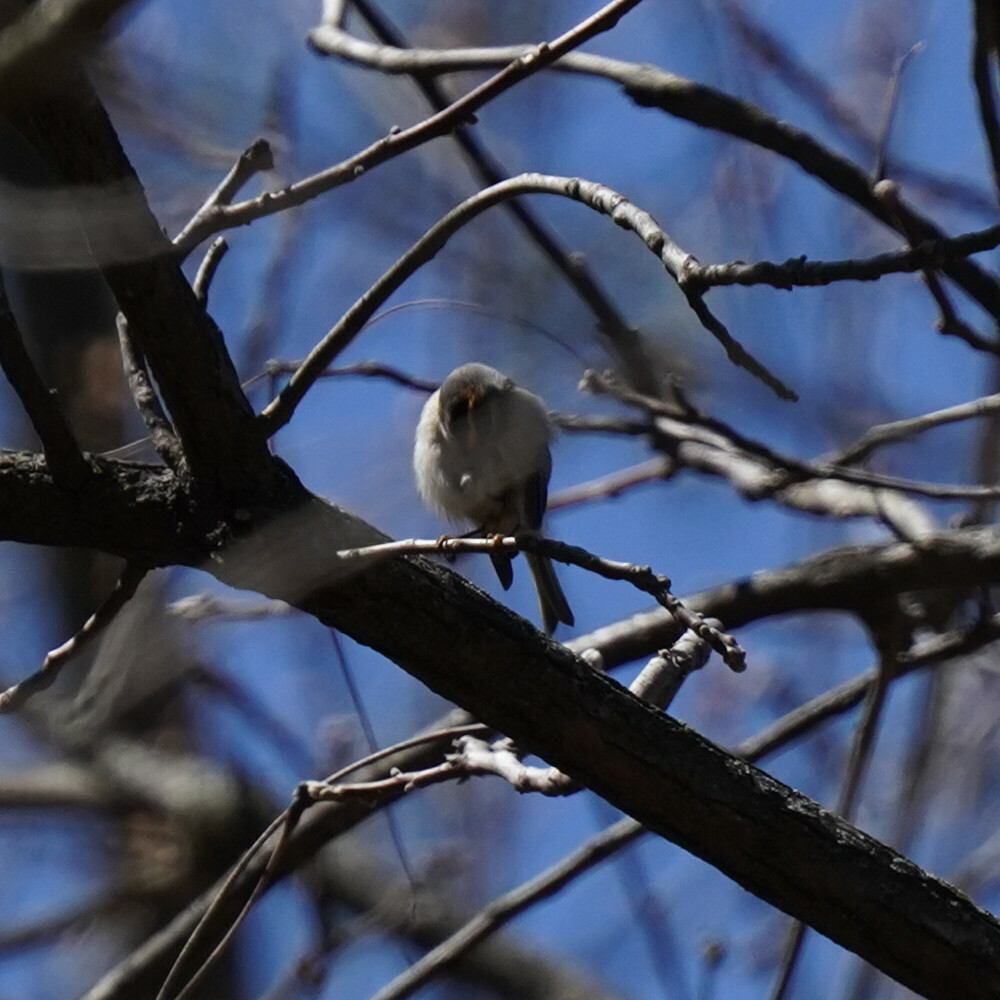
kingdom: Animalia
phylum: Chordata
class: Aves
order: Passeriformes
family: Regulidae
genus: Regulus
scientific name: Regulus satrapa
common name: Golden-crowned kinglet
